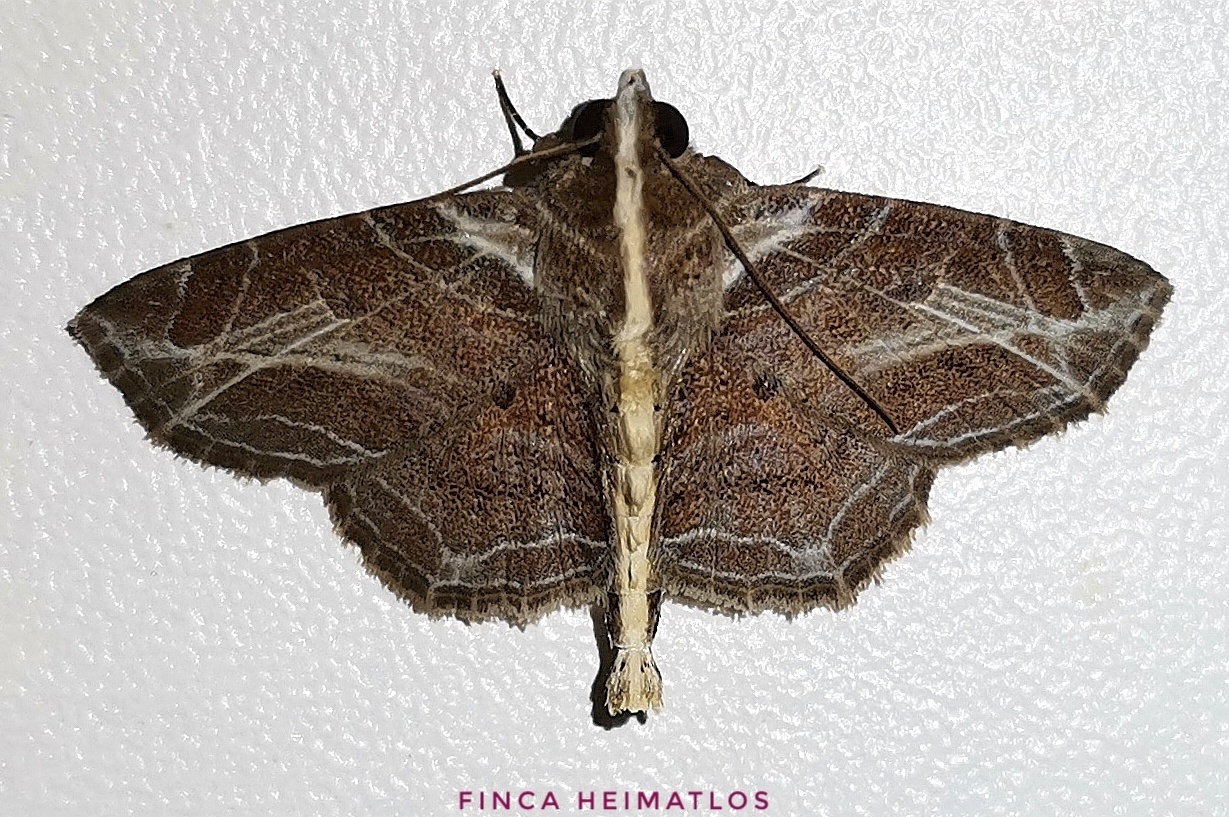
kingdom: Animalia
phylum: Arthropoda
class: Insecta
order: Lepidoptera
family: Erebidae
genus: Dolichosomastis
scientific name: Dolichosomastis leucogrammica
